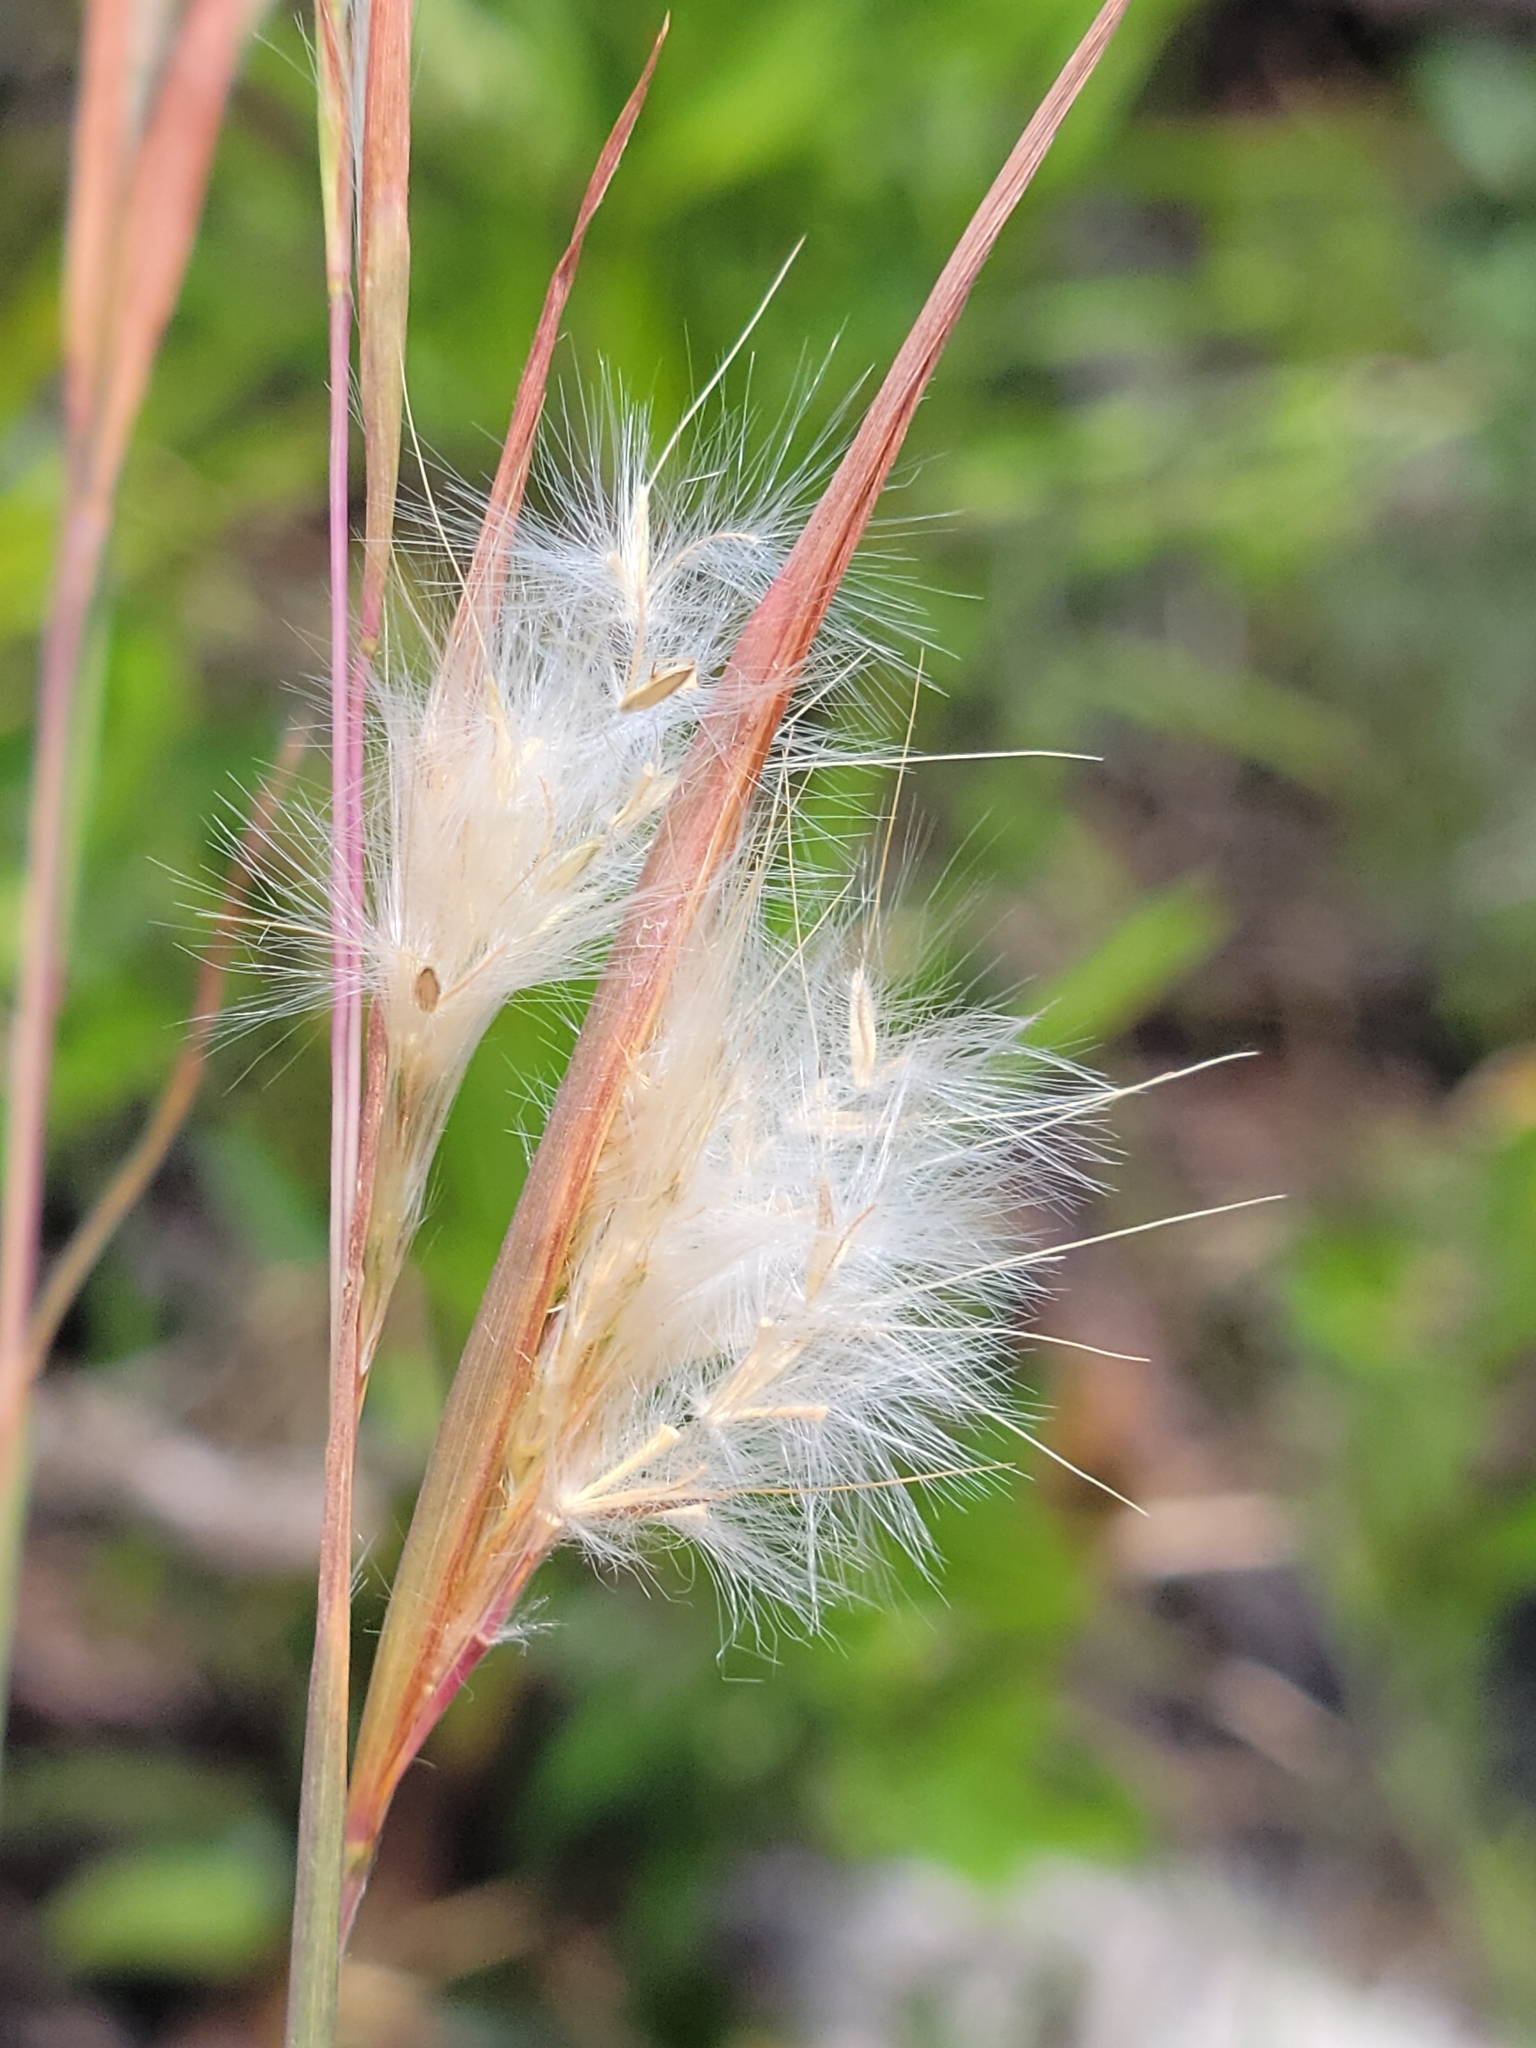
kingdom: Plantae
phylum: Tracheophyta
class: Liliopsida
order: Poales
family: Poaceae
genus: Andropogon
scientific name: Andropogon longiberbis
